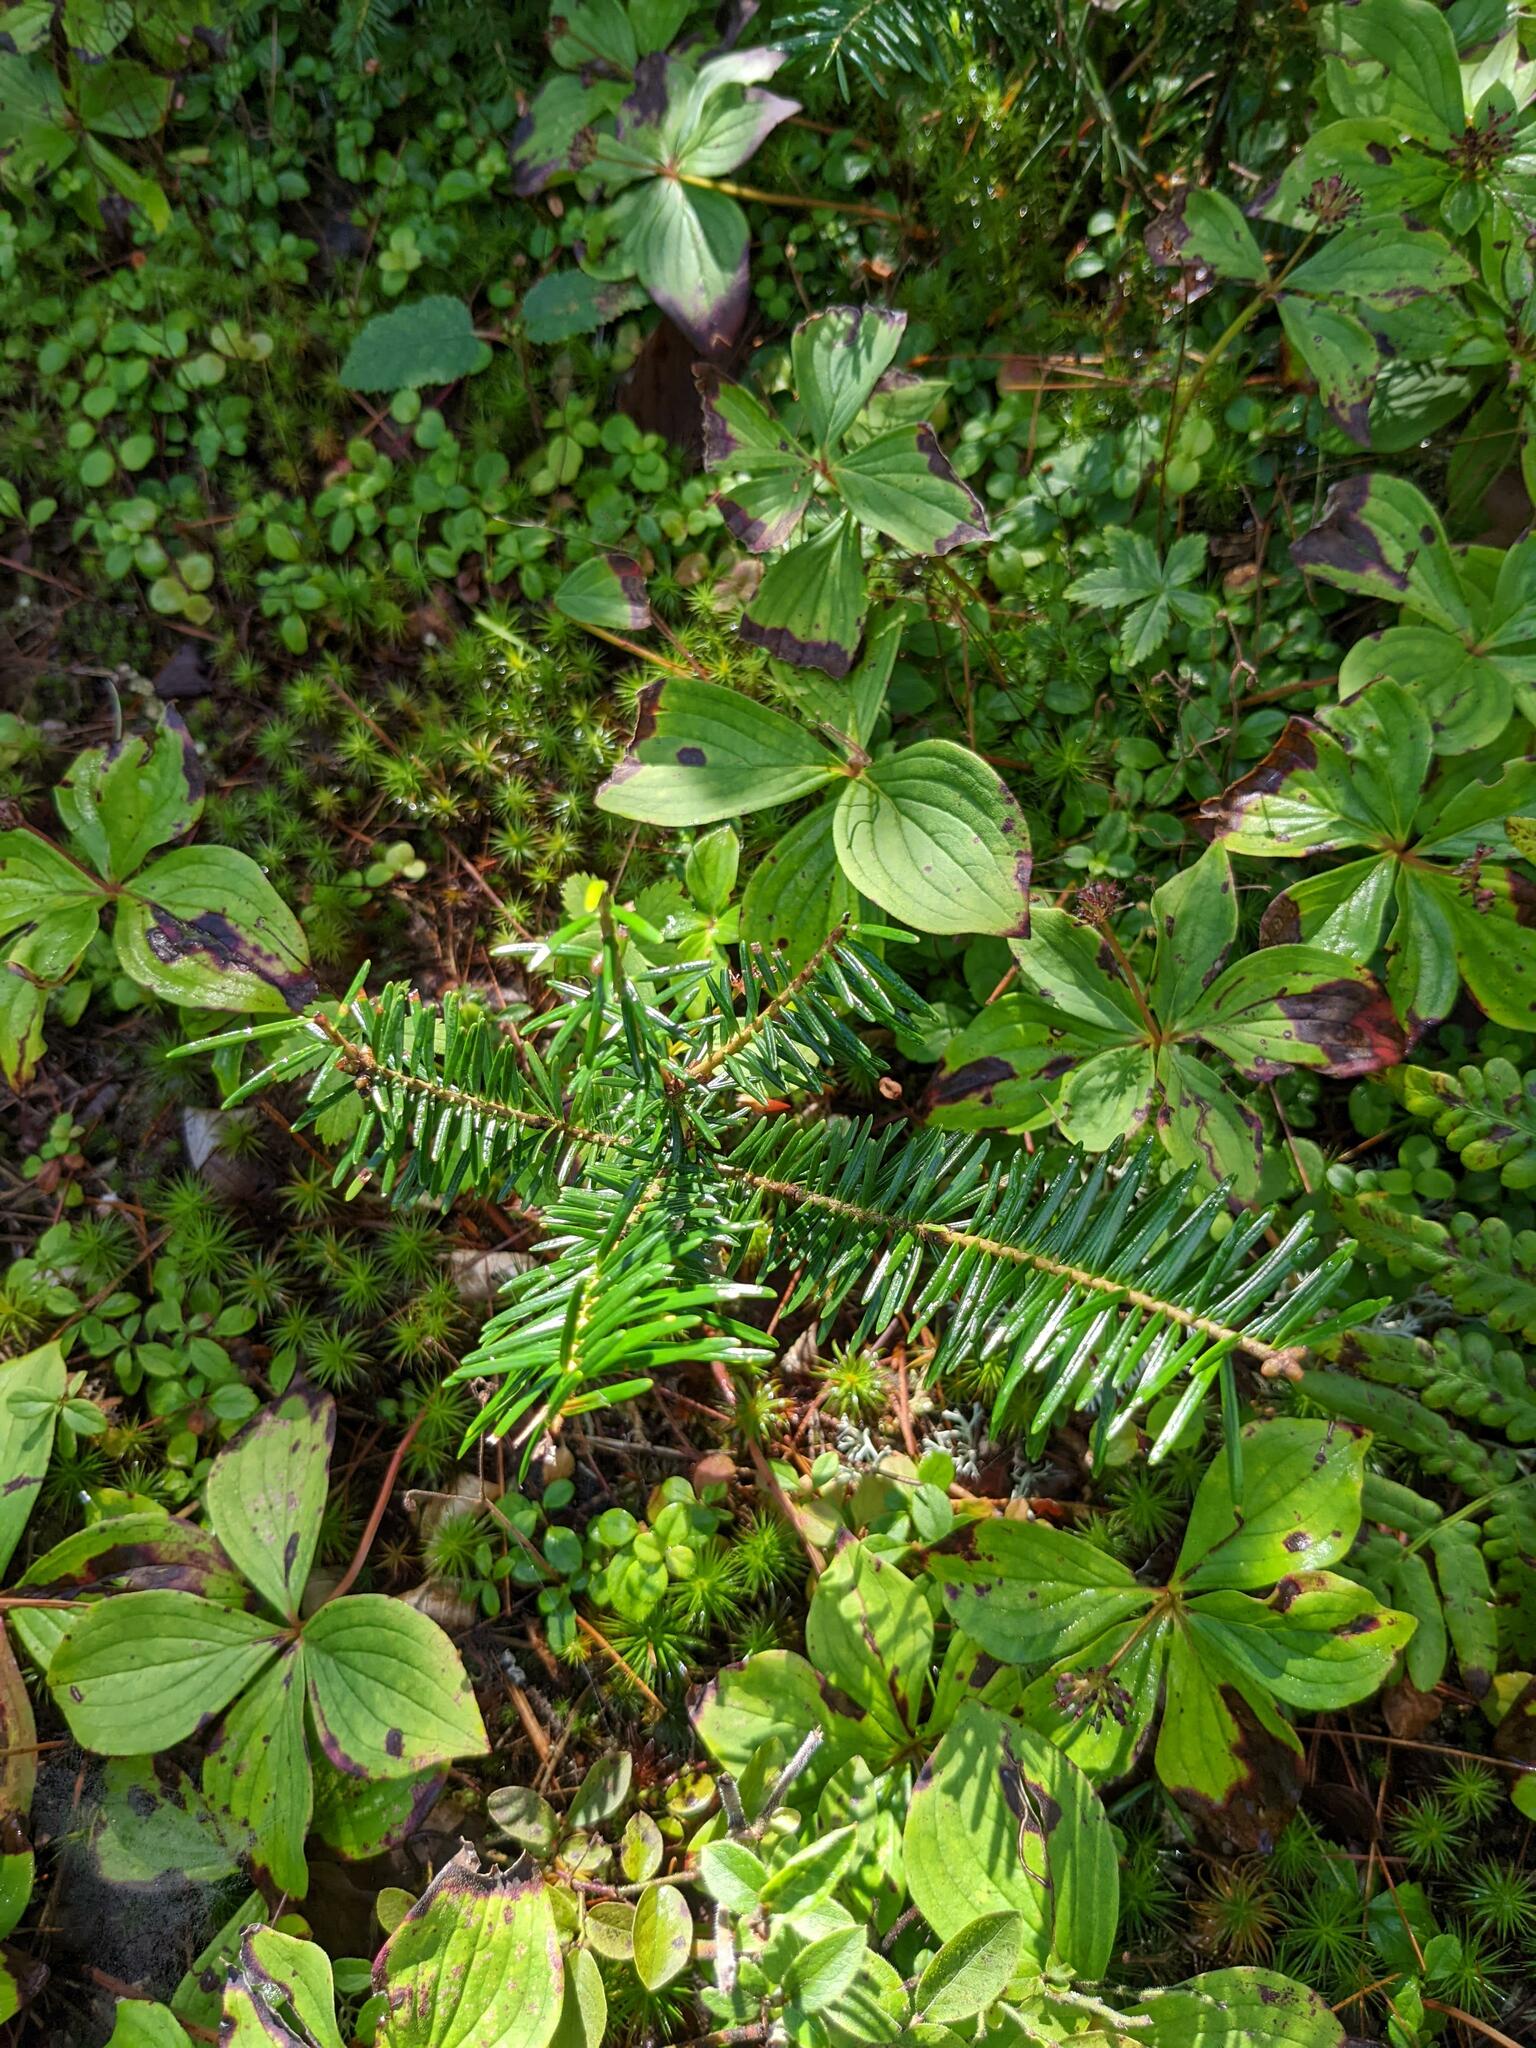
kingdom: Plantae
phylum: Tracheophyta
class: Pinopsida
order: Pinales
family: Pinaceae
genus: Abies
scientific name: Abies balsamea
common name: Balsam fir
